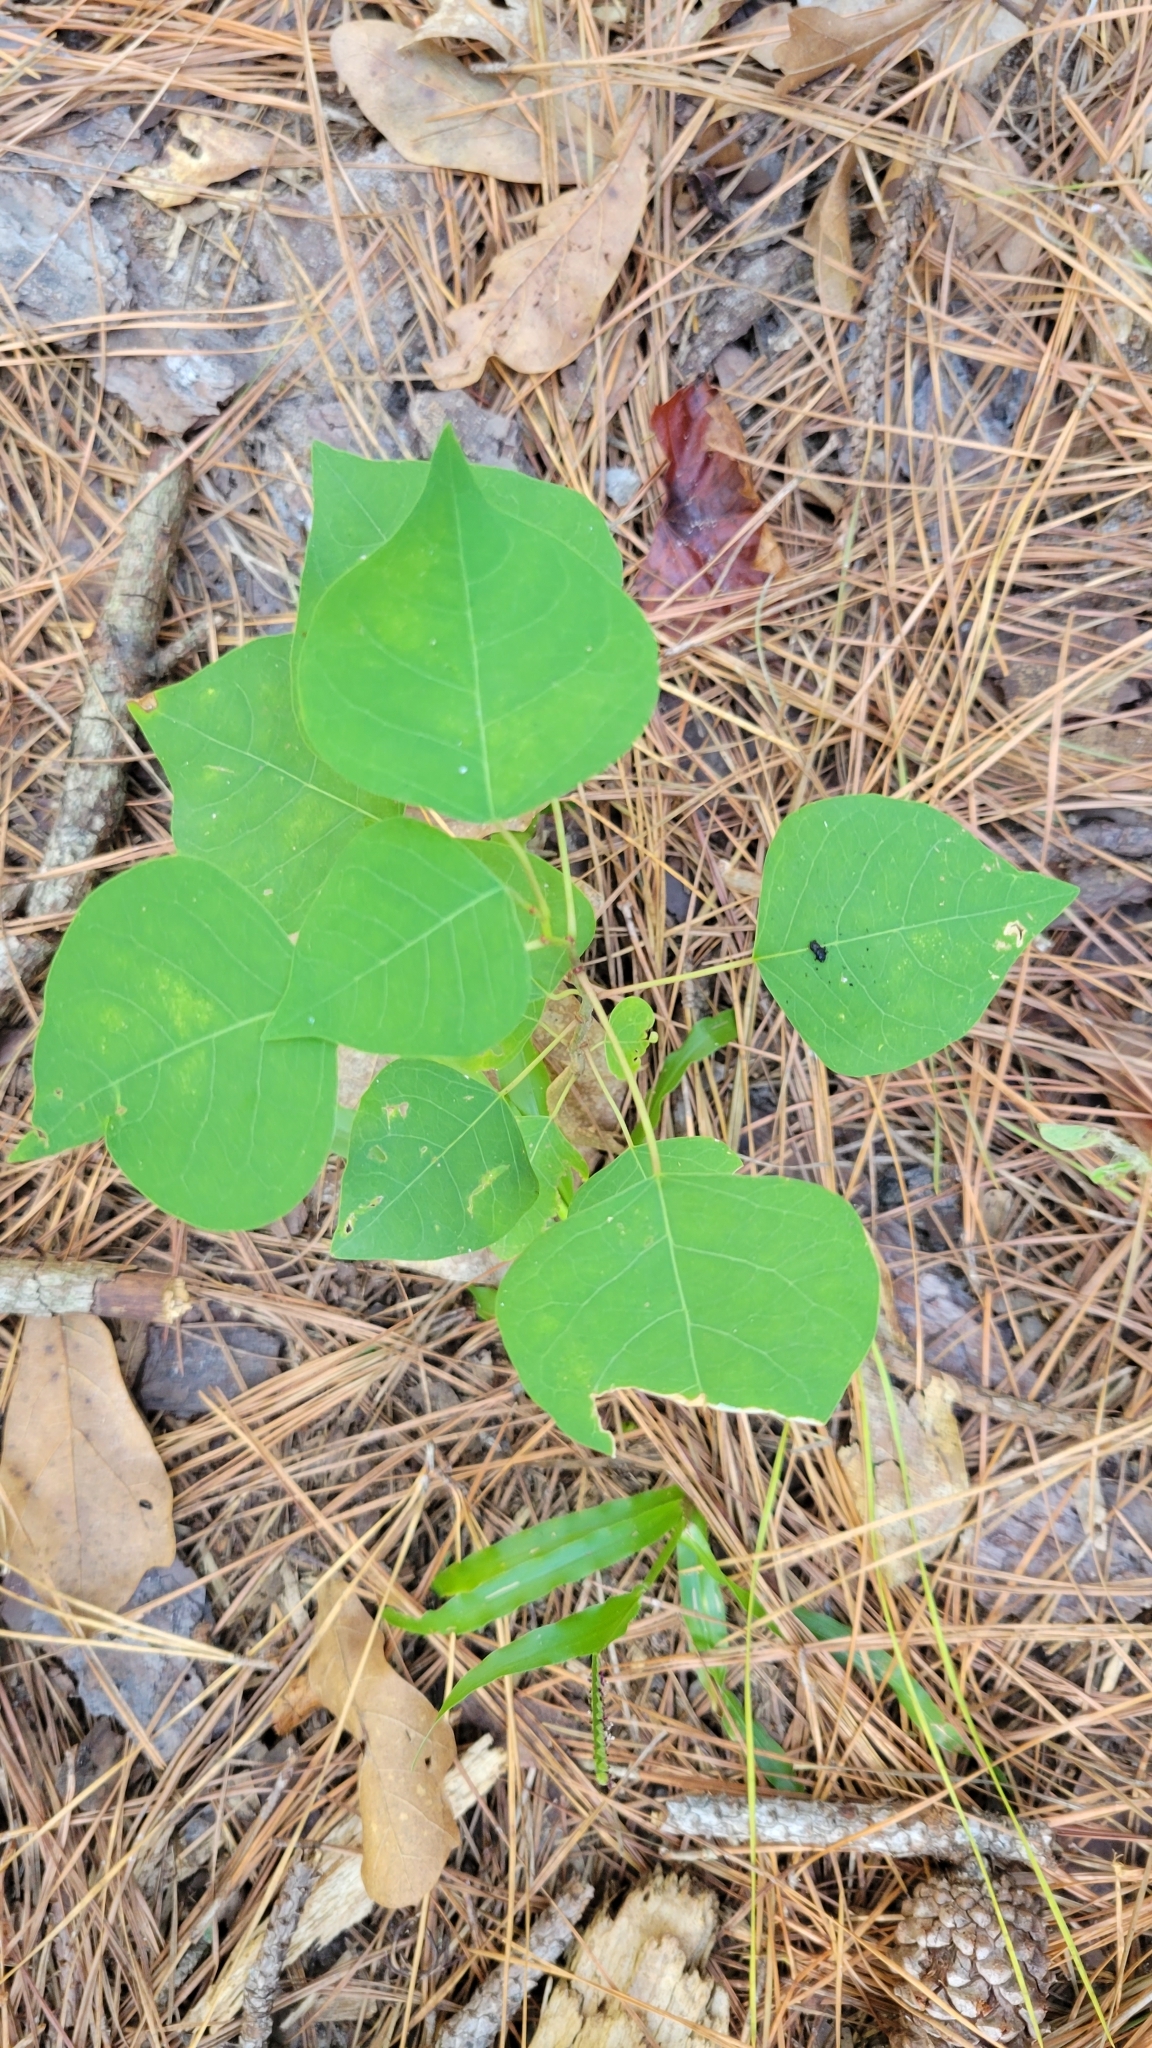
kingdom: Plantae
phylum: Tracheophyta
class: Magnoliopsida
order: Malpighiales
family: Euphorbiaceae
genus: Triadica
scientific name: Triadica sebifera
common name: Chinese tallow
